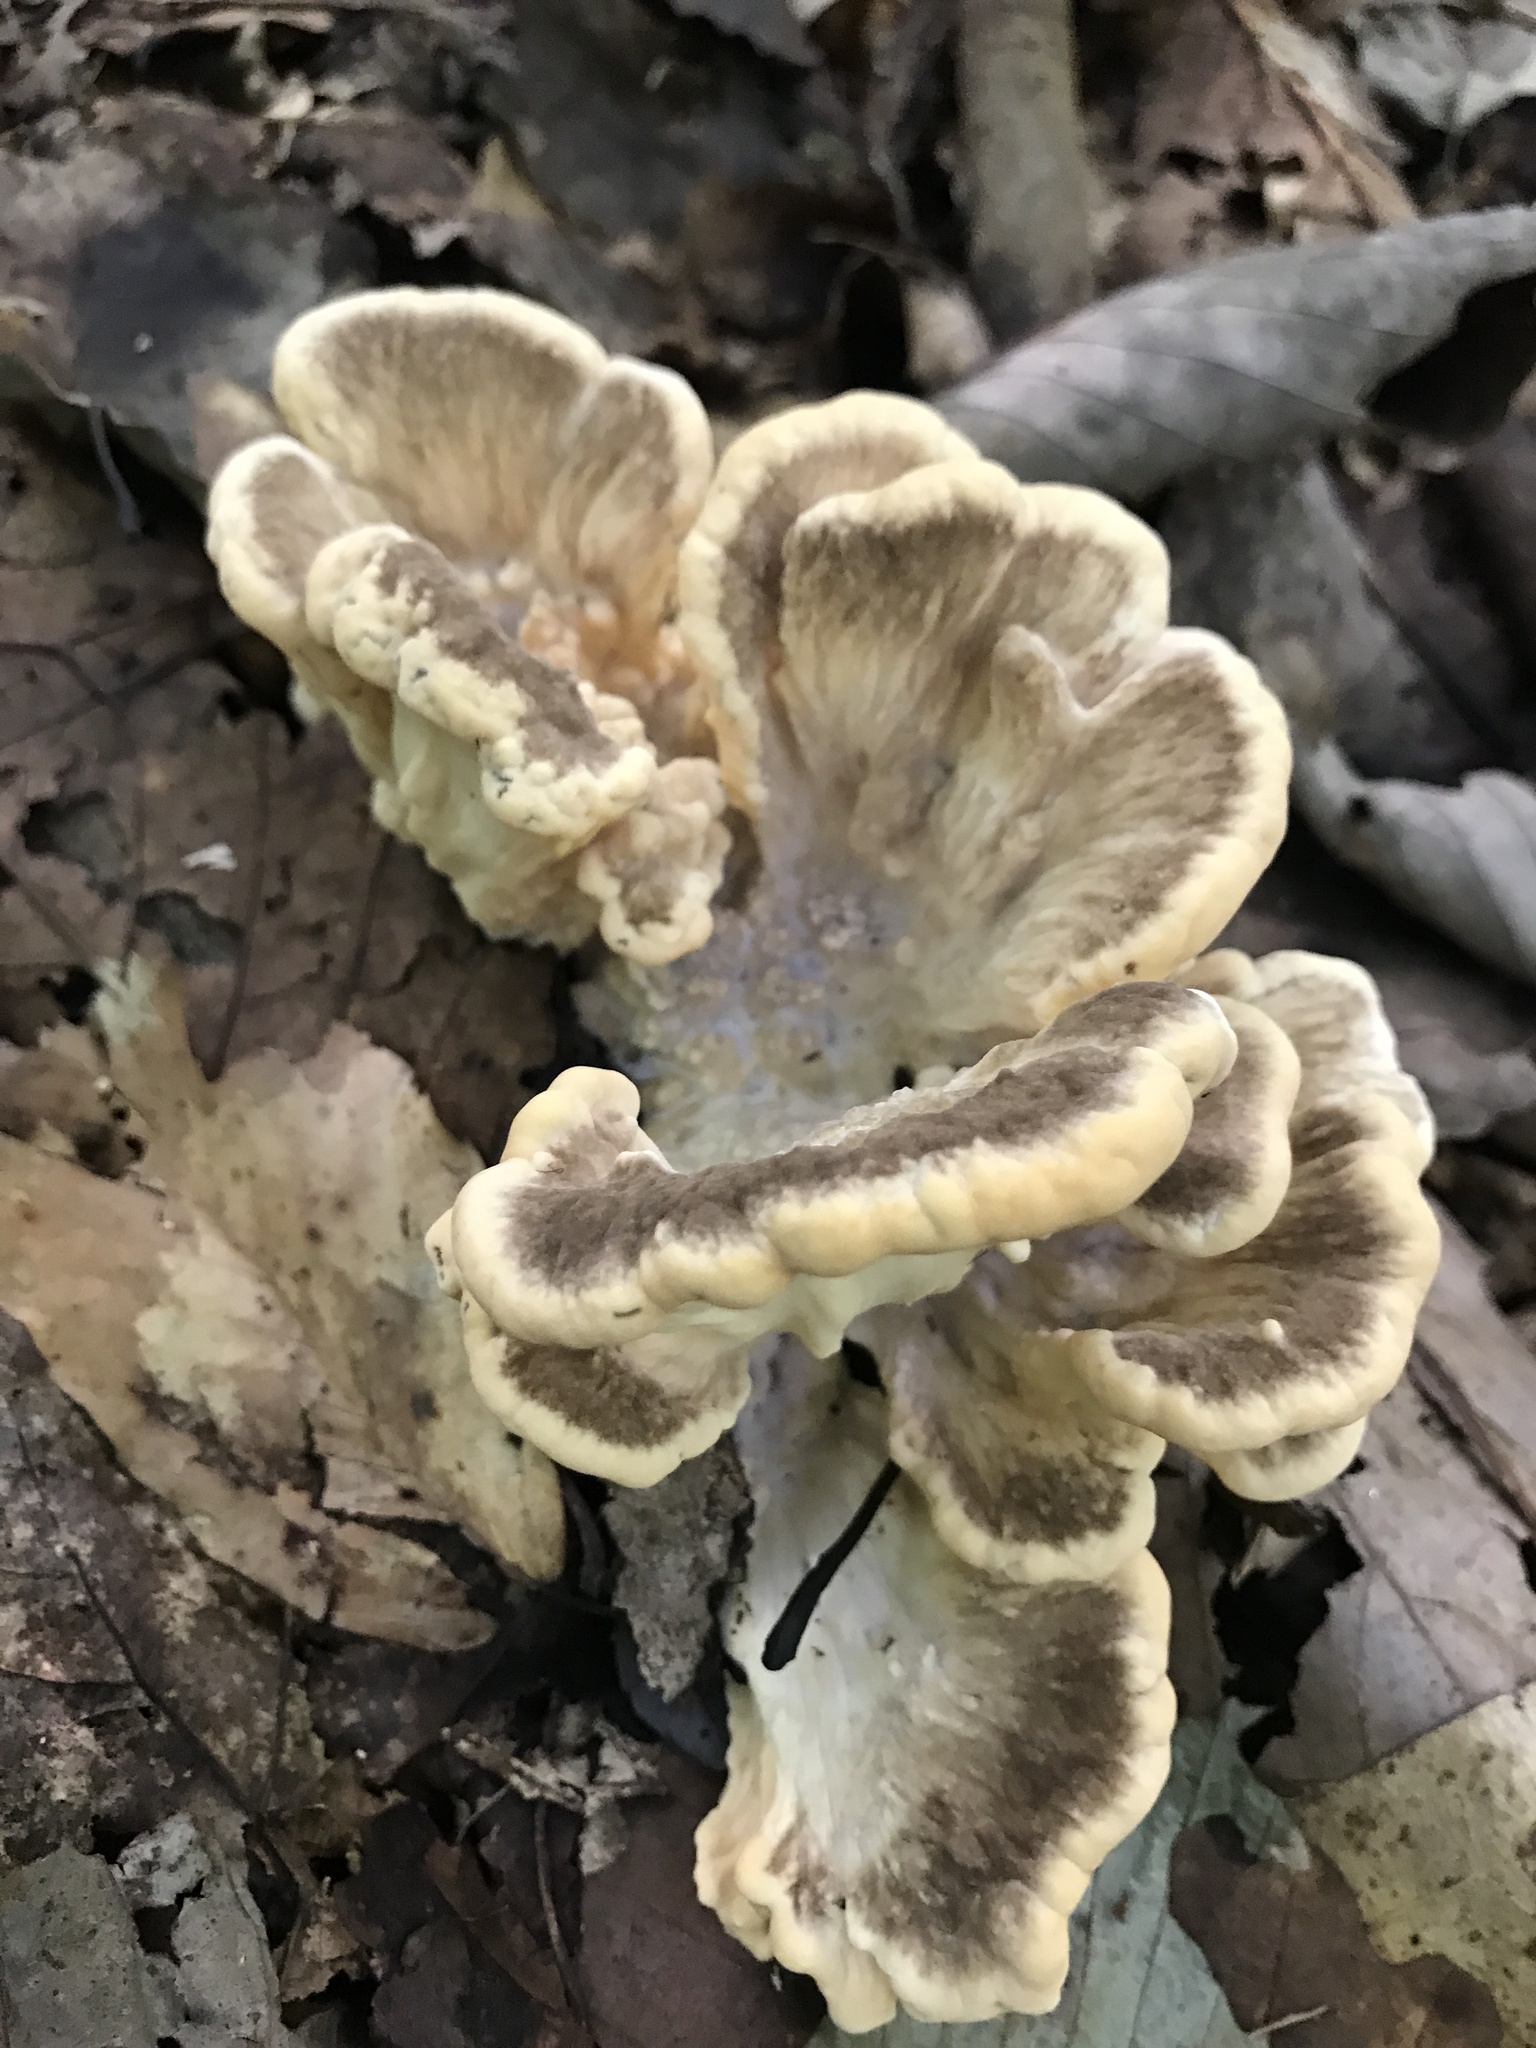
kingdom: Fungi
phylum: Basidiomycota
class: Agaricomycetes
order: Polyporales
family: Meripilaceae
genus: Meripilus
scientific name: Meripilus sumstinei
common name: Black-staining polypore
